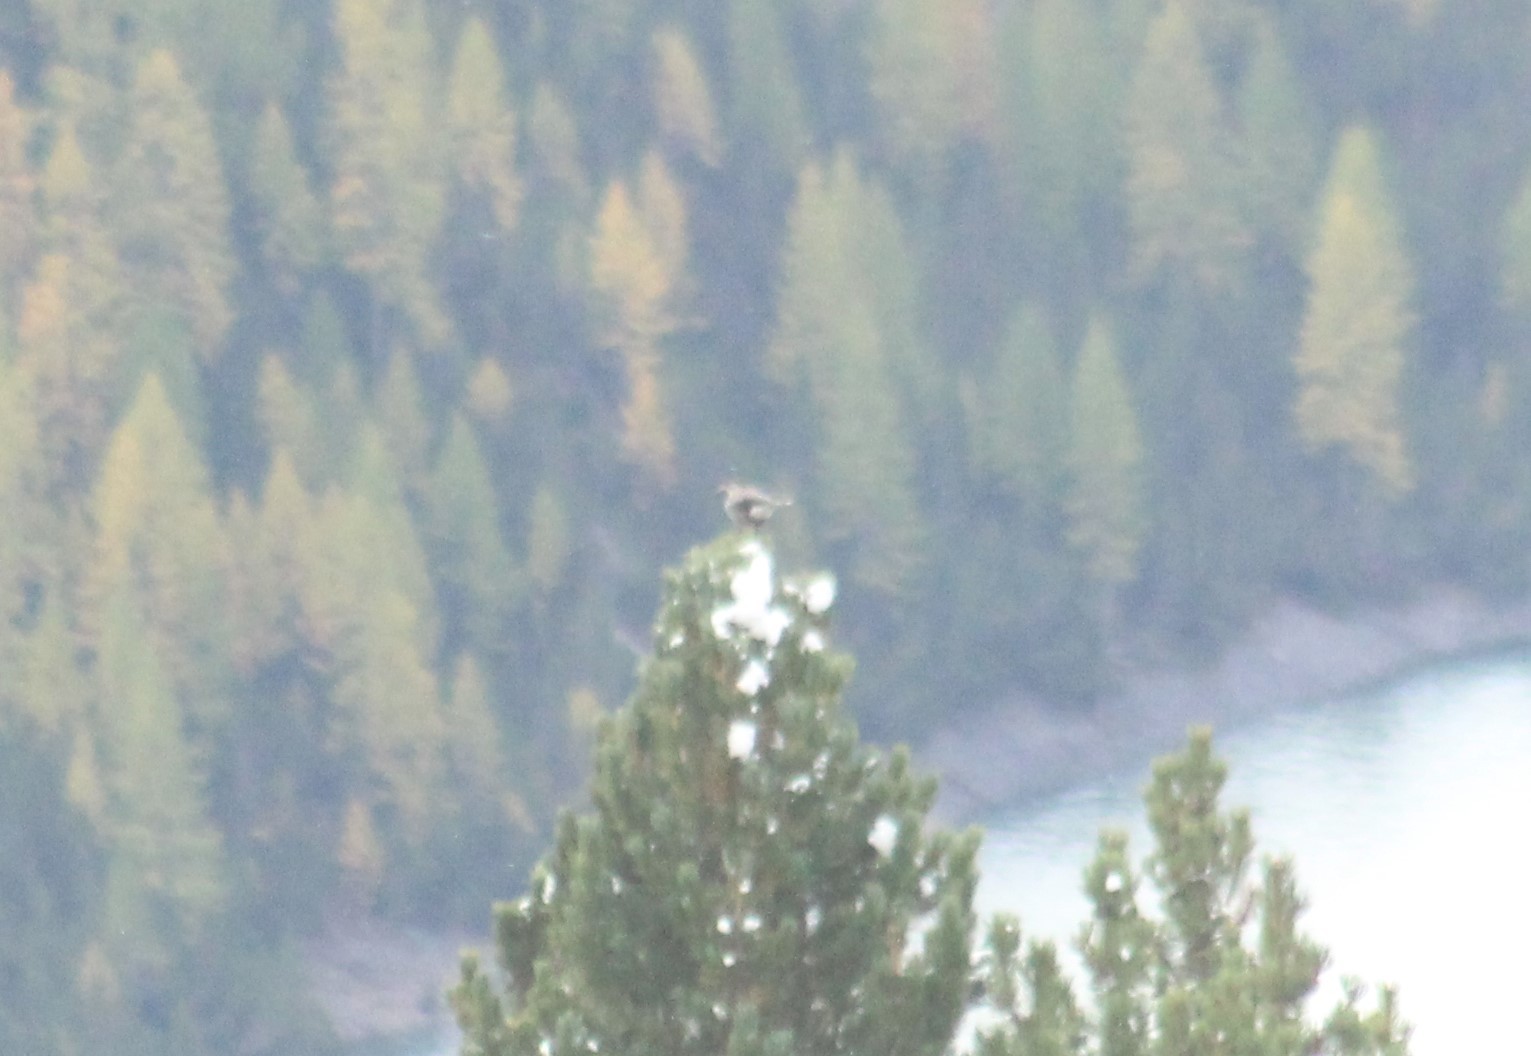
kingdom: Animalia
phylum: Chordata
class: Aves
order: Passeriformes
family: Corvidae
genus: Nucifraga
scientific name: Nucifraga caryocatactes
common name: Spotted nutcracker
